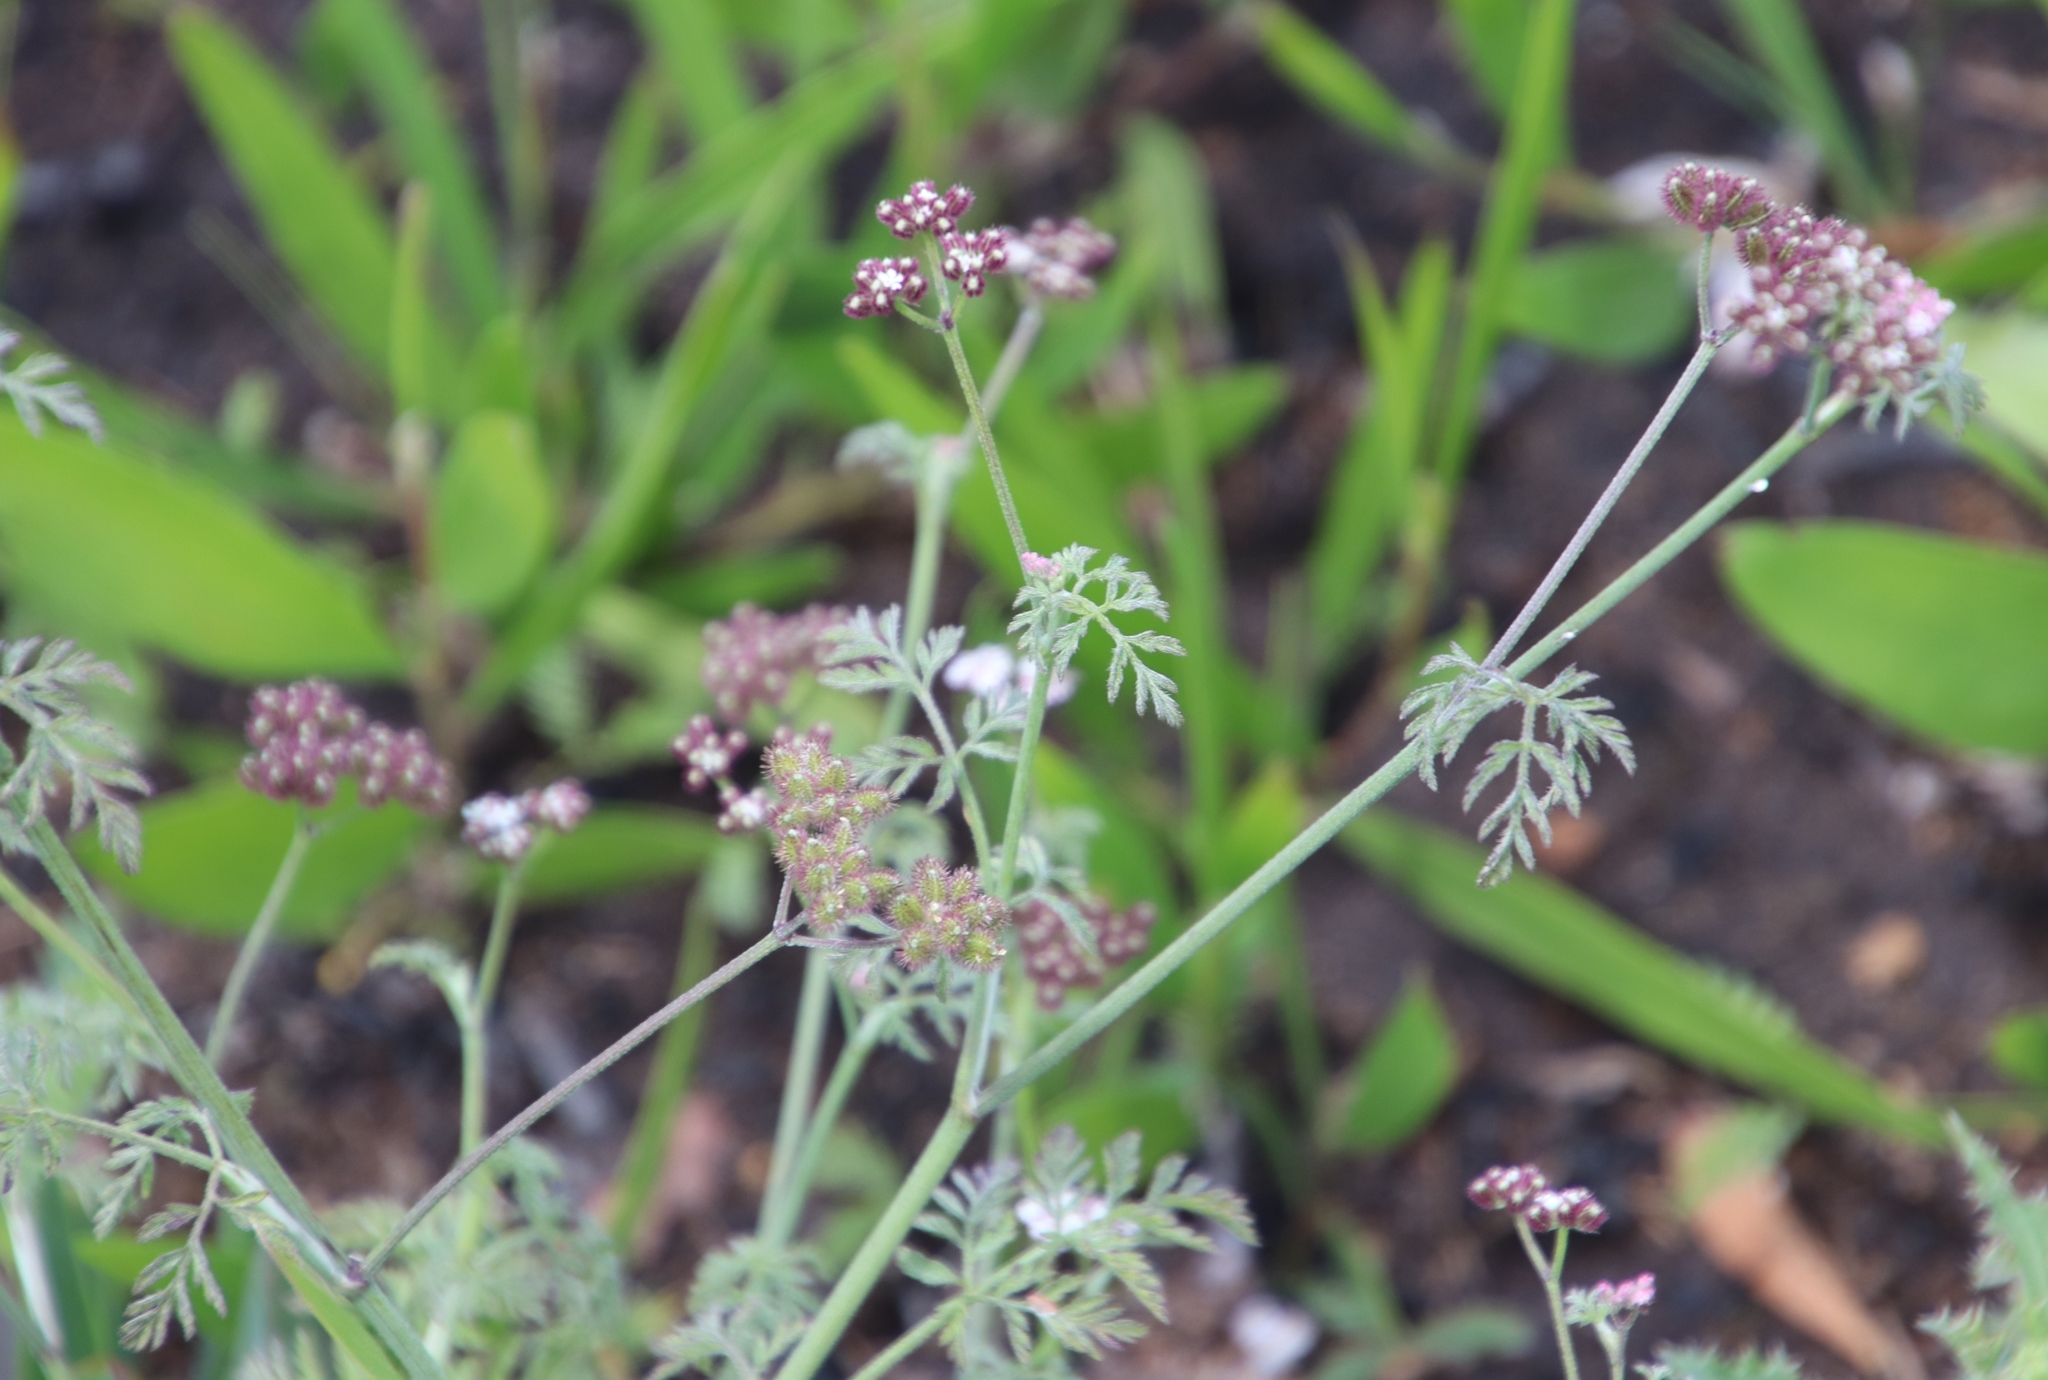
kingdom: Plantae
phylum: Tracheophyta
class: Magnoliopsida
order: Apiales
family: Apiaceae
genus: Torilis
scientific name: Torilis africana
